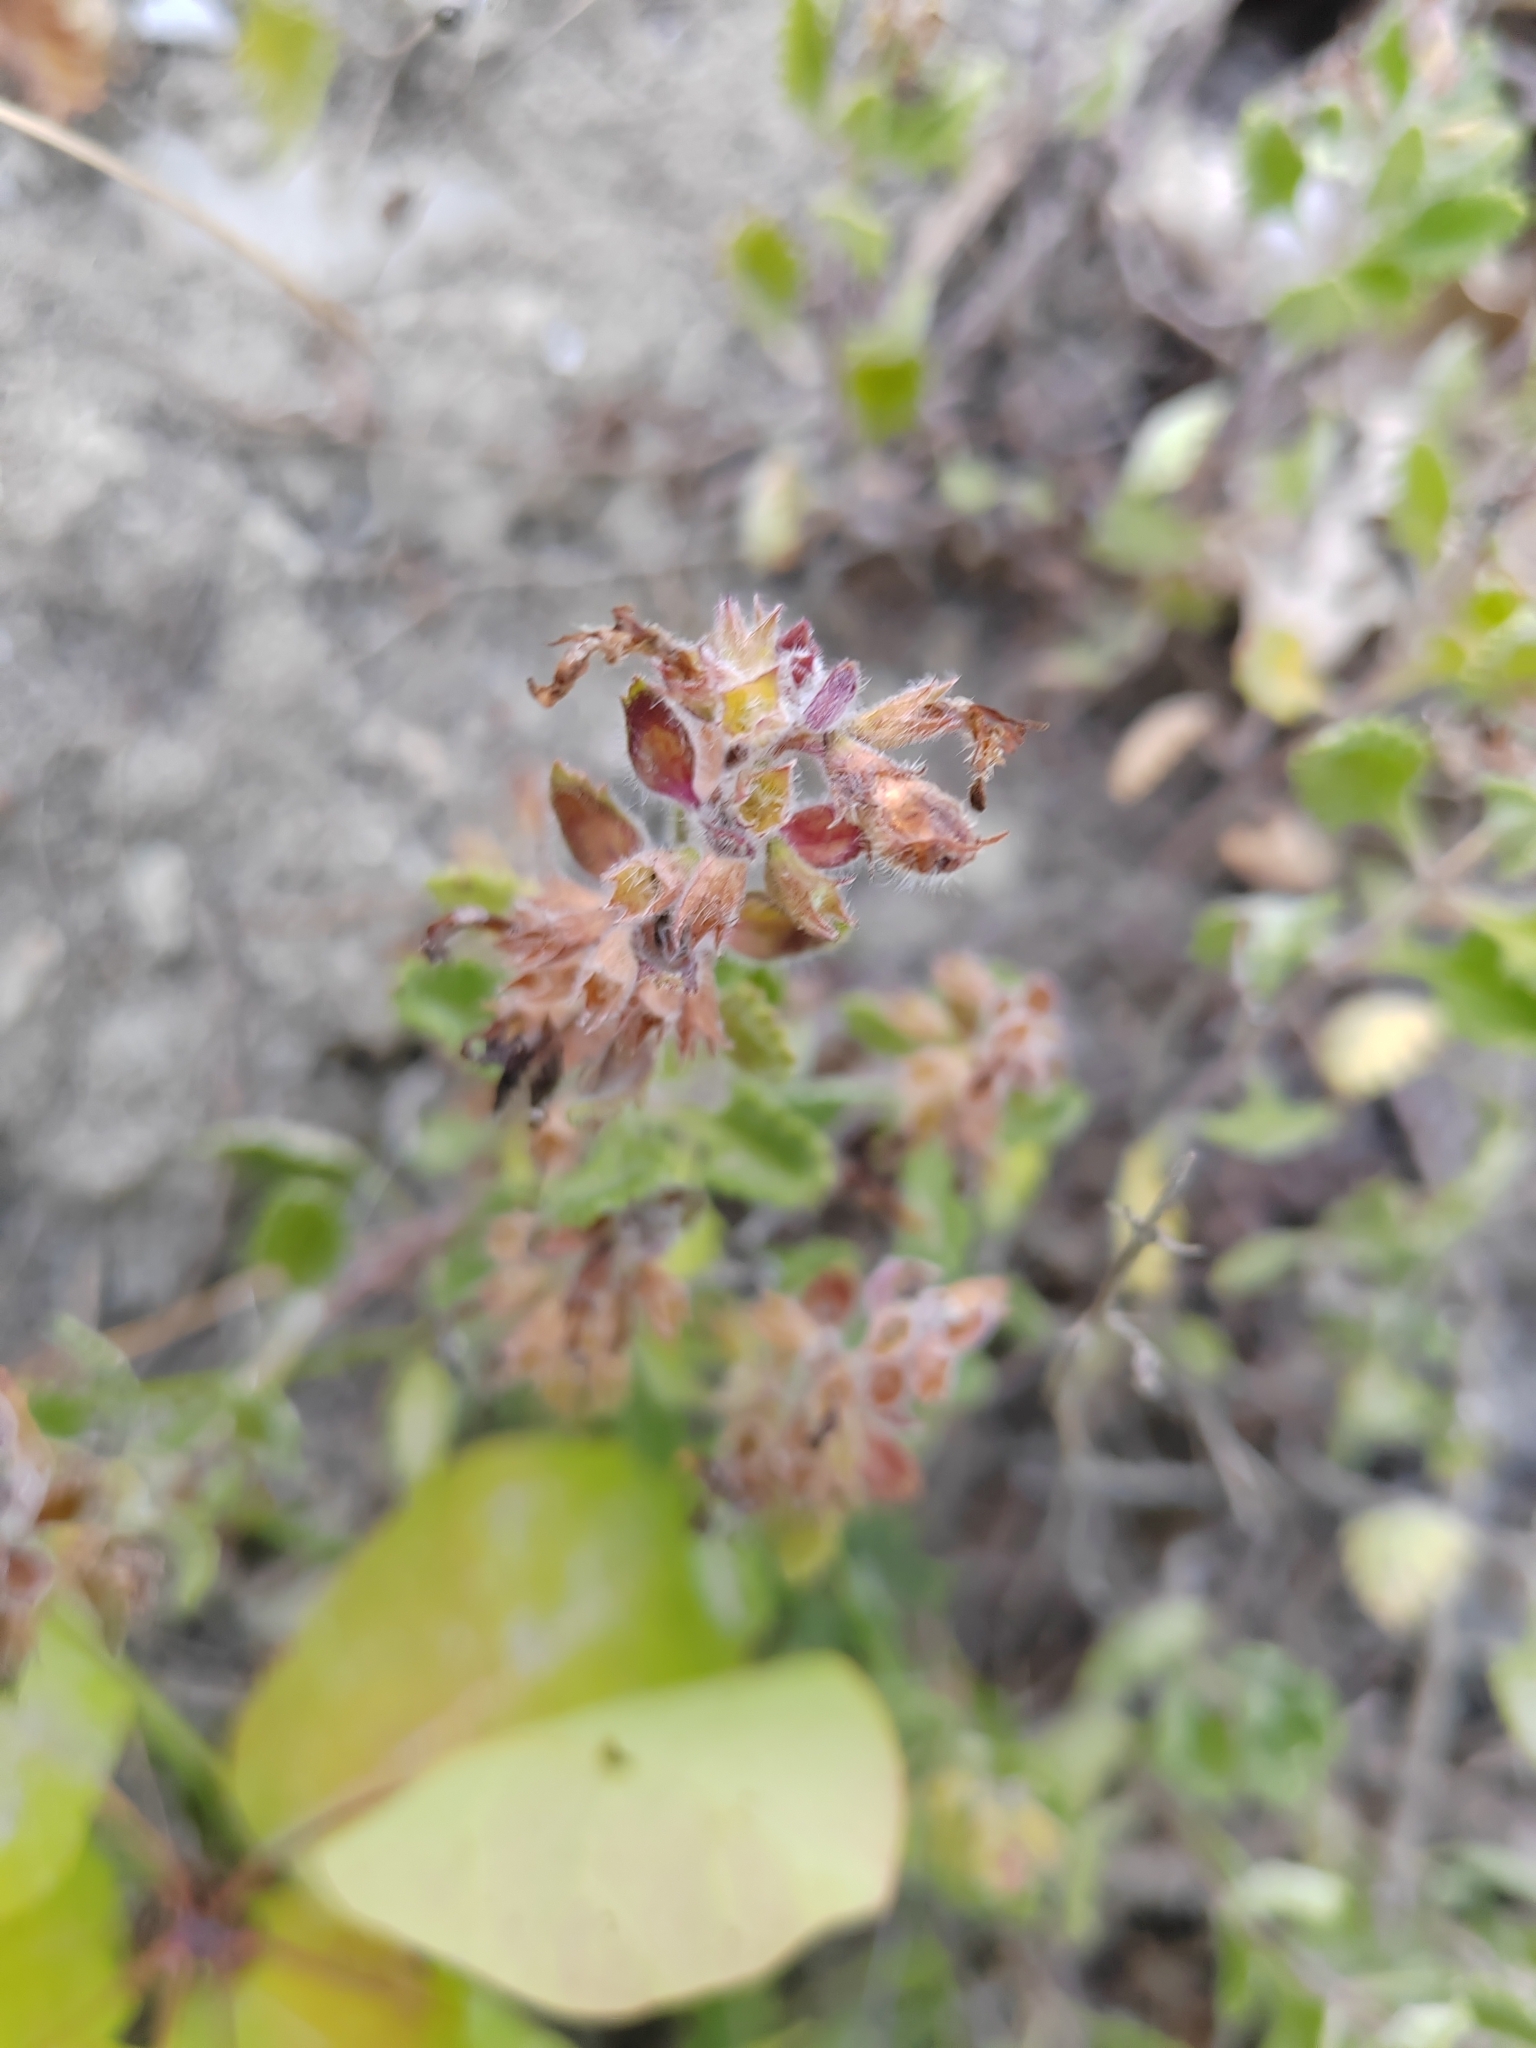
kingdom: Plantae
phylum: Tracheophyta
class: Magnoliopsida
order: Lamiales
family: Lamiaceae
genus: Teucrium
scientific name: Teucrium chamaedrys
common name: Wall germander
